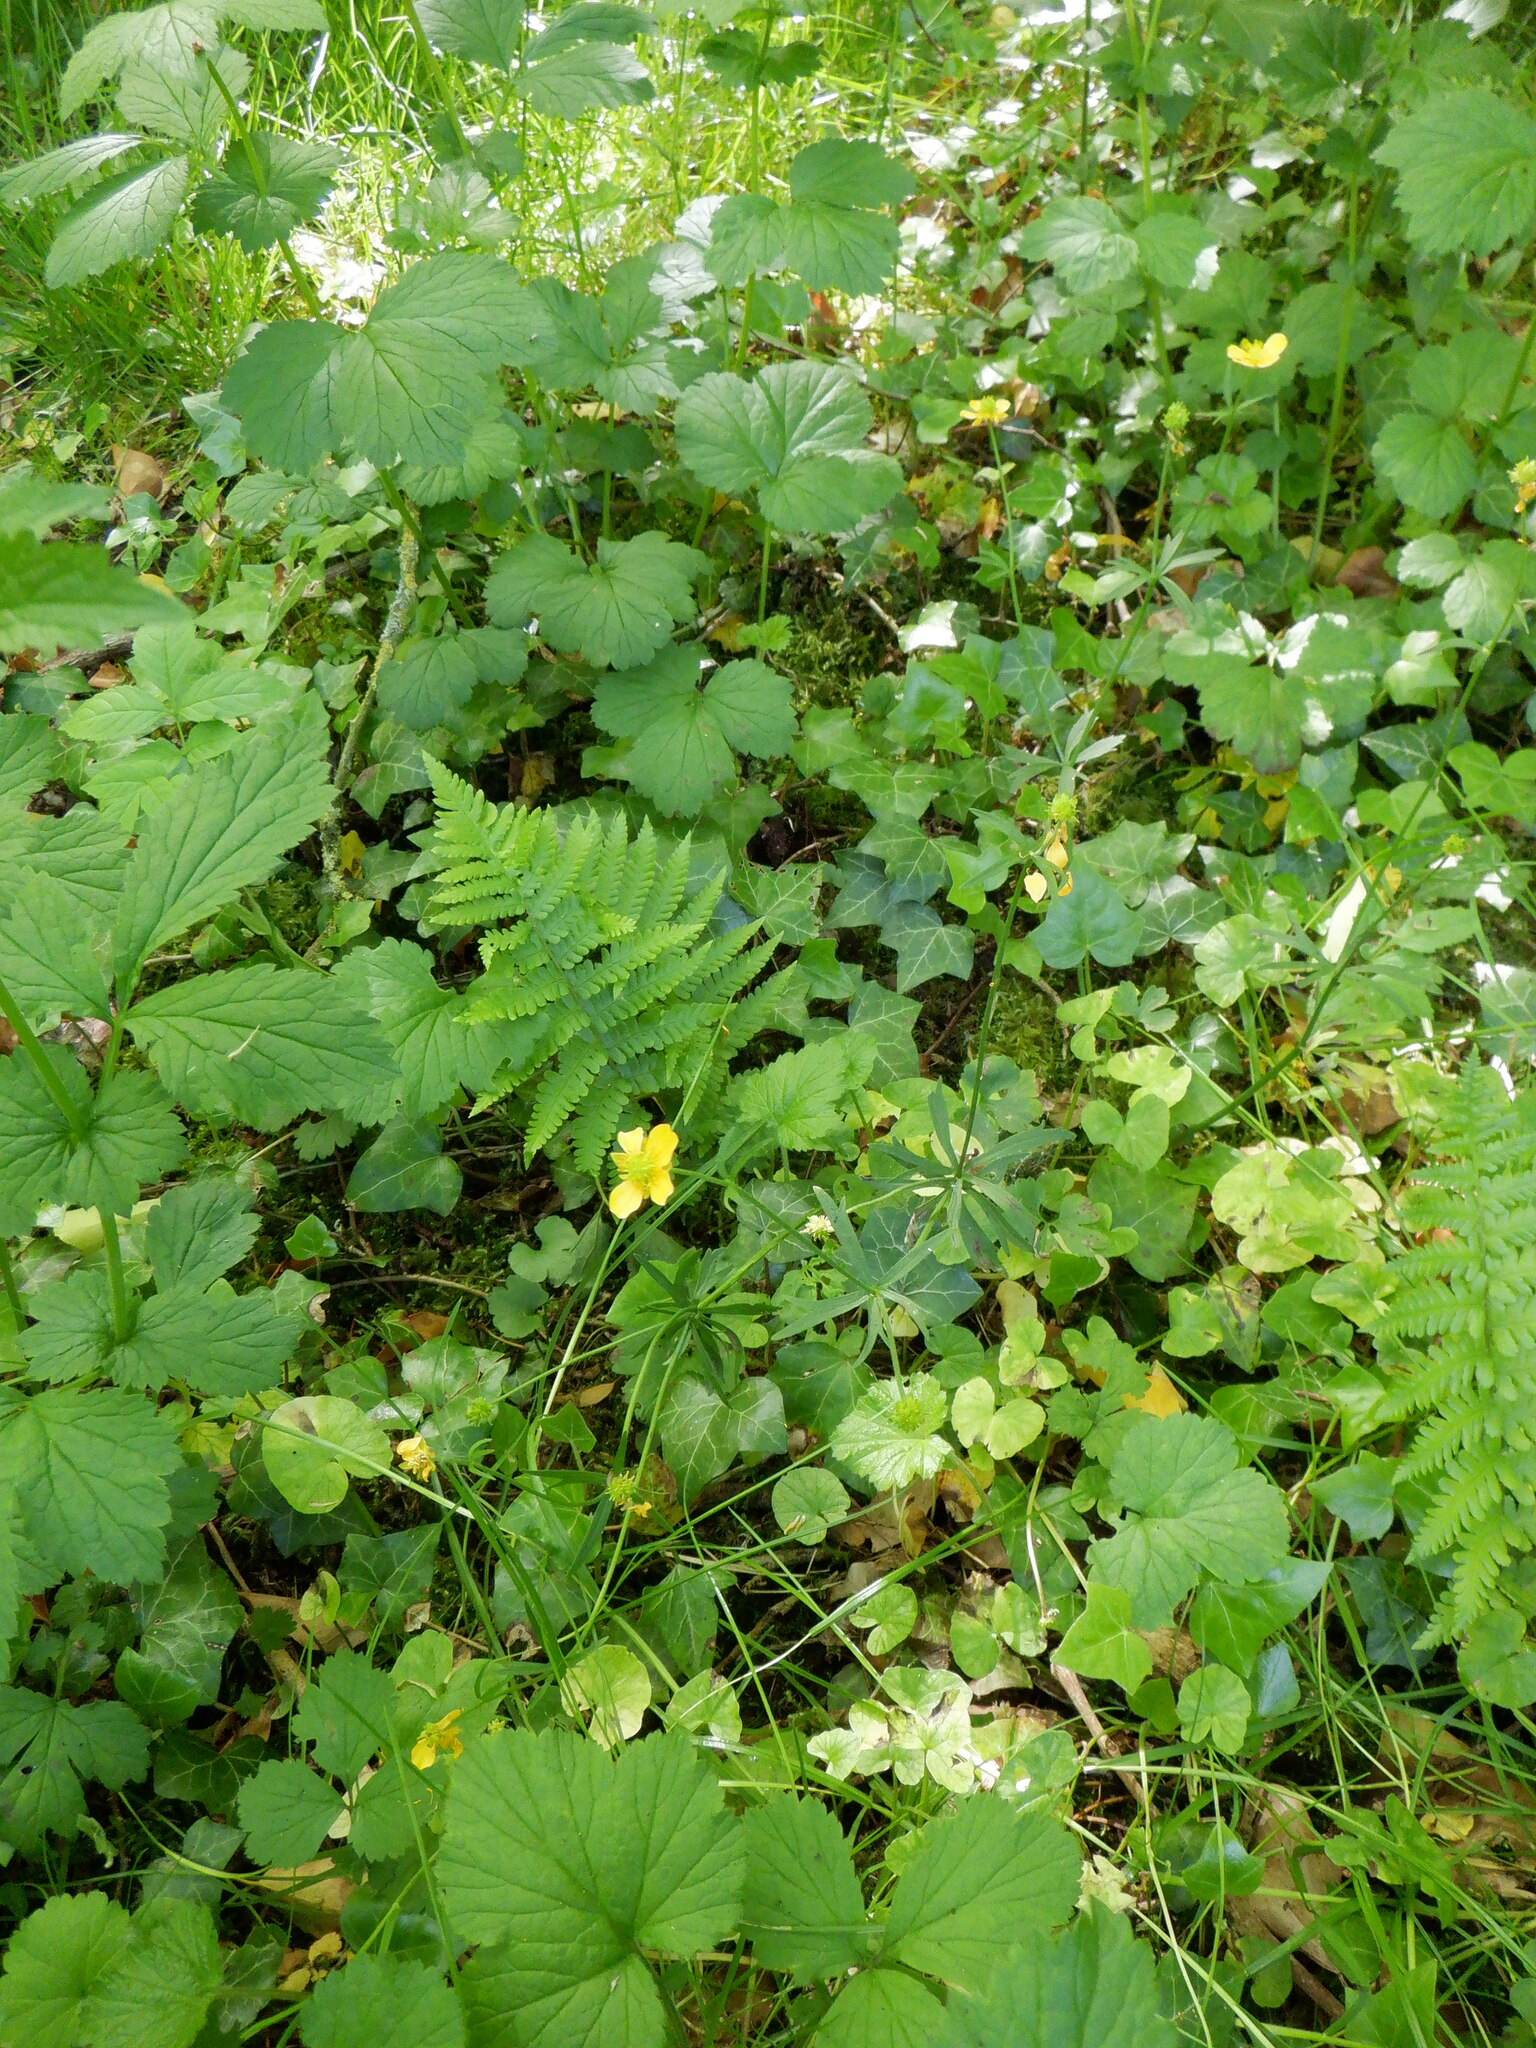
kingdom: Plantae
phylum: Tracheophyta
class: Magnoliopsida
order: Ranunculales
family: Ranunculaceae
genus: Ranunculus
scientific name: Ranunculus auricomus
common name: Goldilocks buttercup
